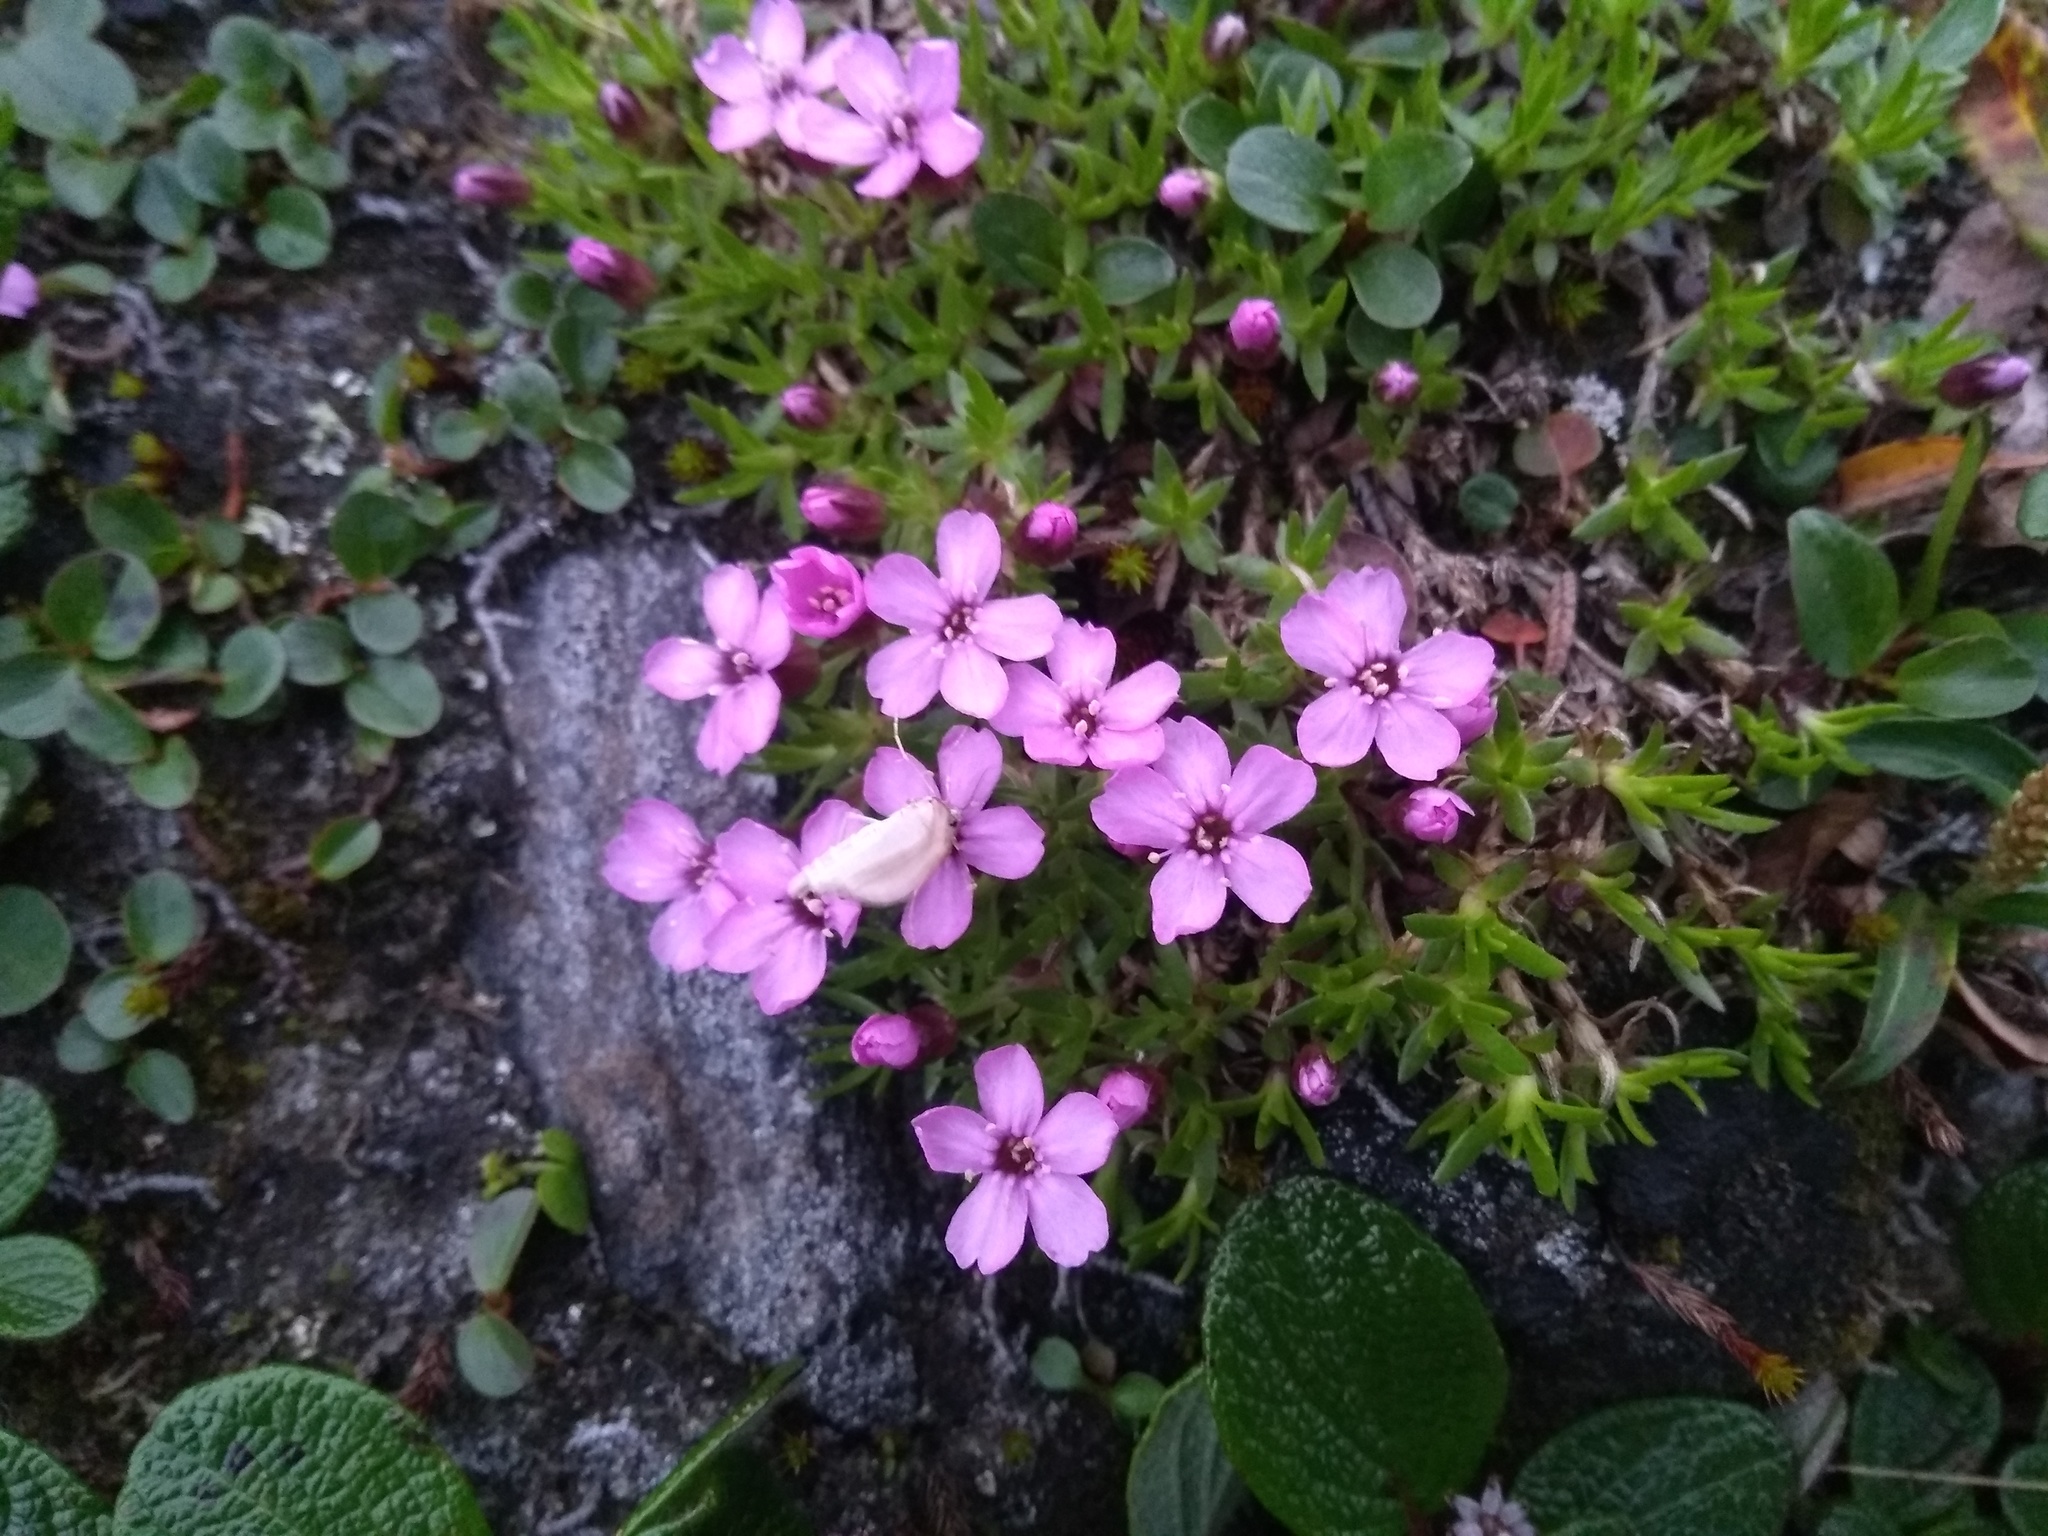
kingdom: Plantae
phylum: Tracheophyta
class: Magnoliopsida
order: Caryophyllales
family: Caryophyllaceae
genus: Silene
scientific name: Silene acaulis
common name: Moss campion
